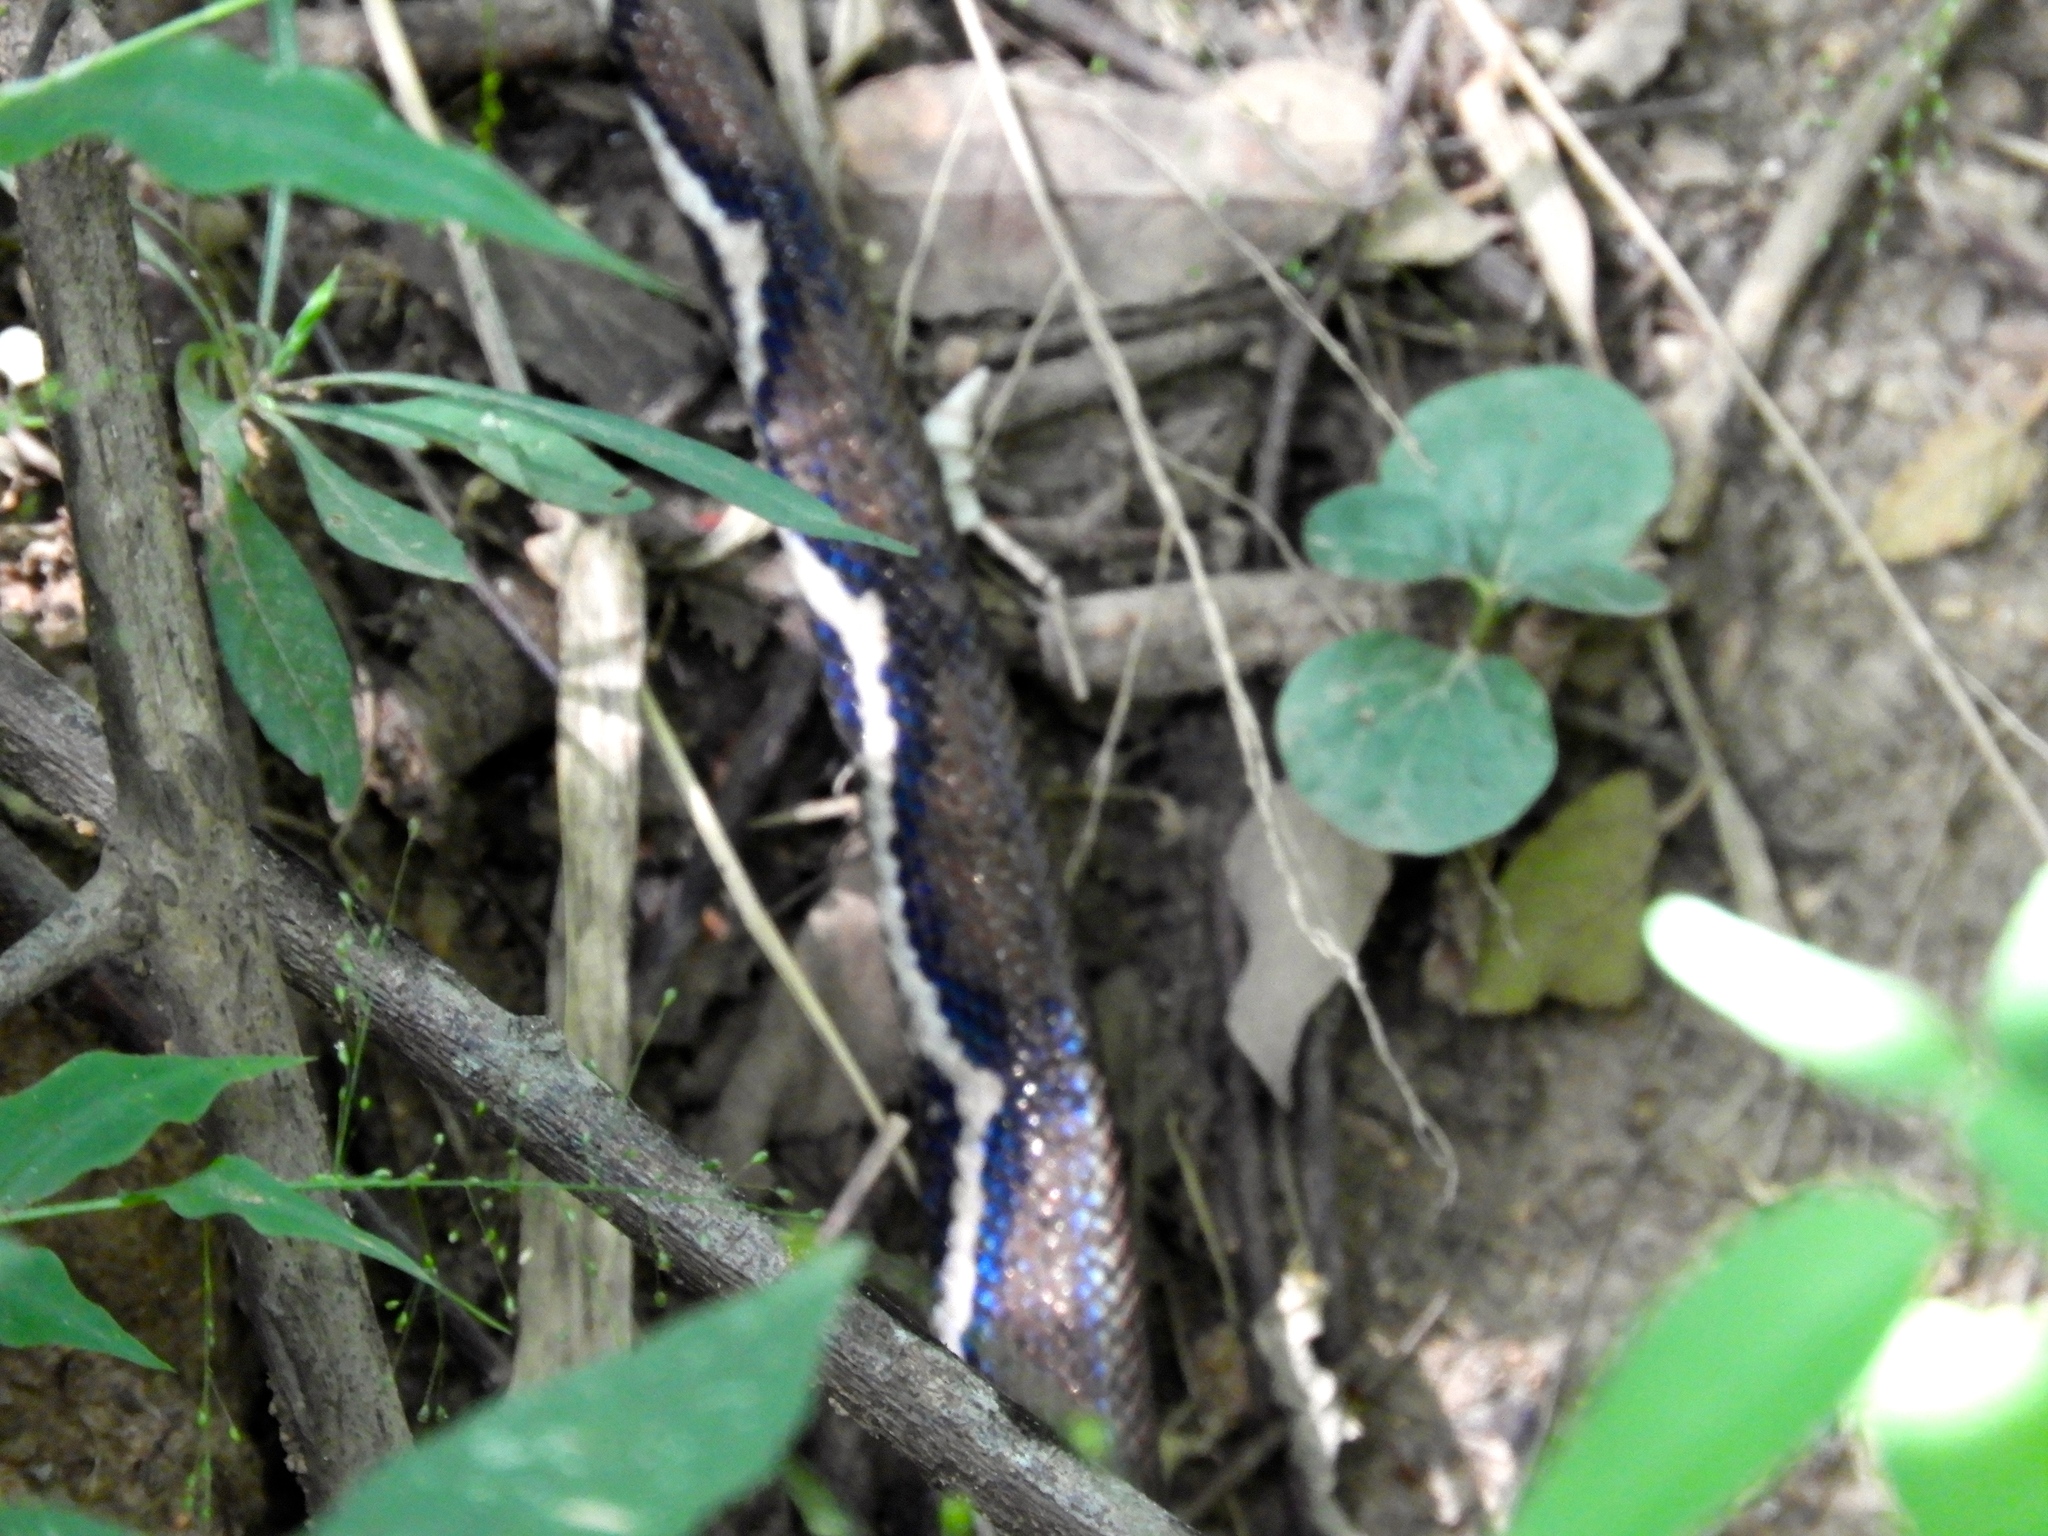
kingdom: Animalia
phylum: Chordata
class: Squamata
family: Boidae
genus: Boa
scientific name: Boa
